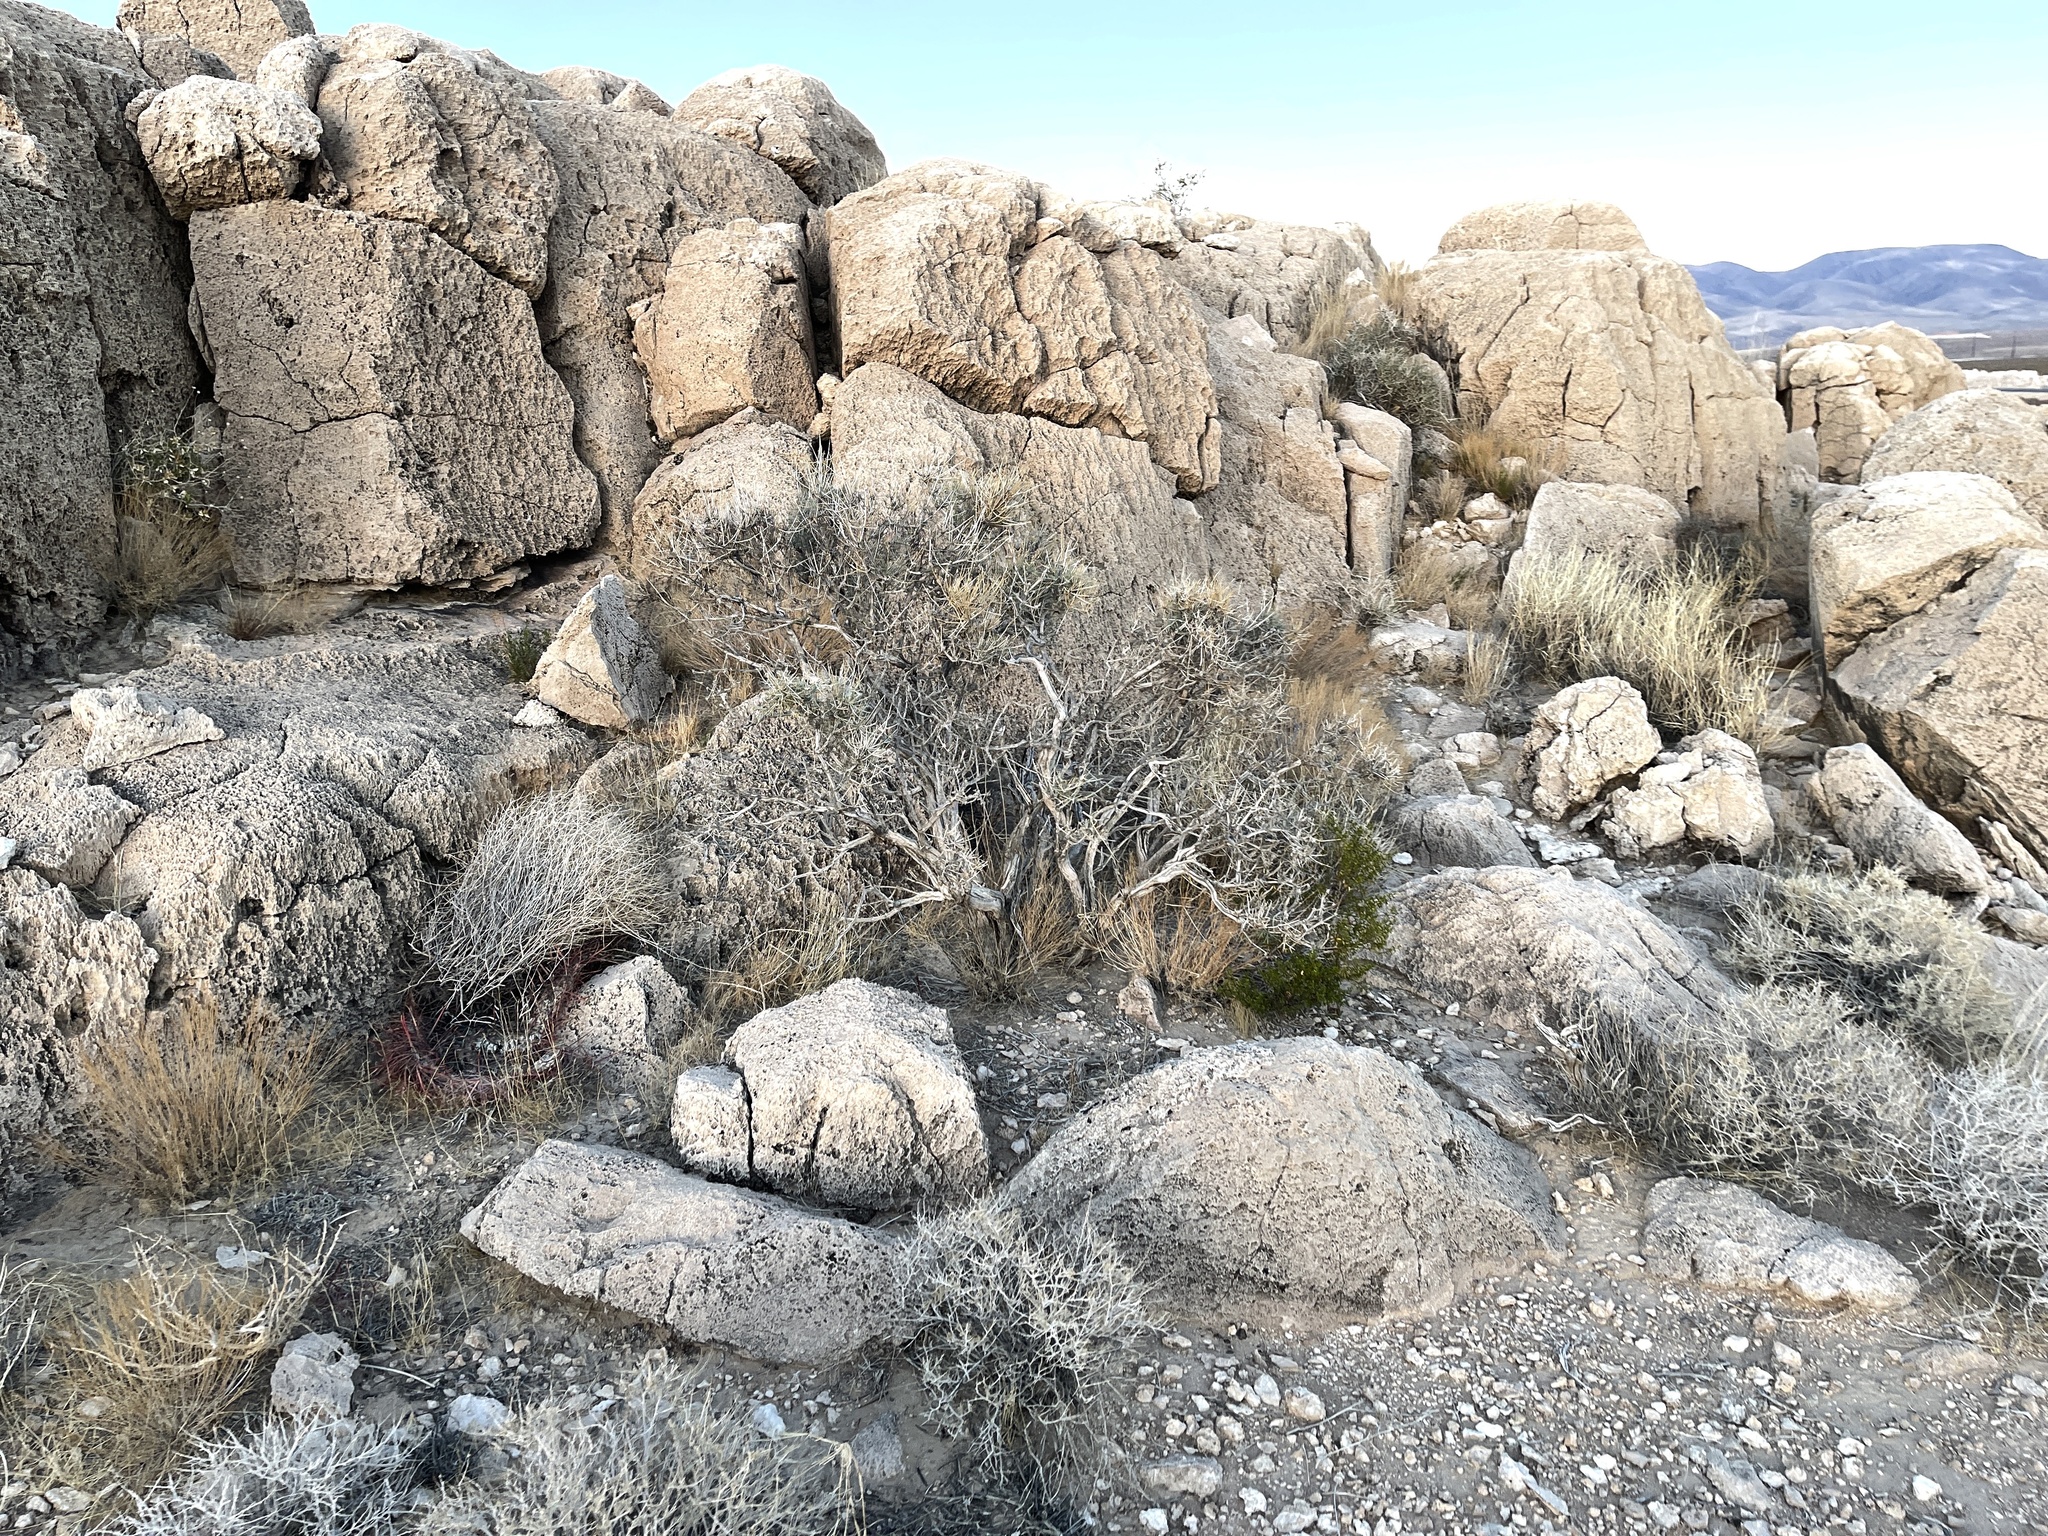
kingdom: Plantae
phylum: Tracheophyta
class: Gnetopsida
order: Ephedrales
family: Ephedraceae
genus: Ephedra
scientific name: Ephedra nevadensis
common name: Gray ephedra
